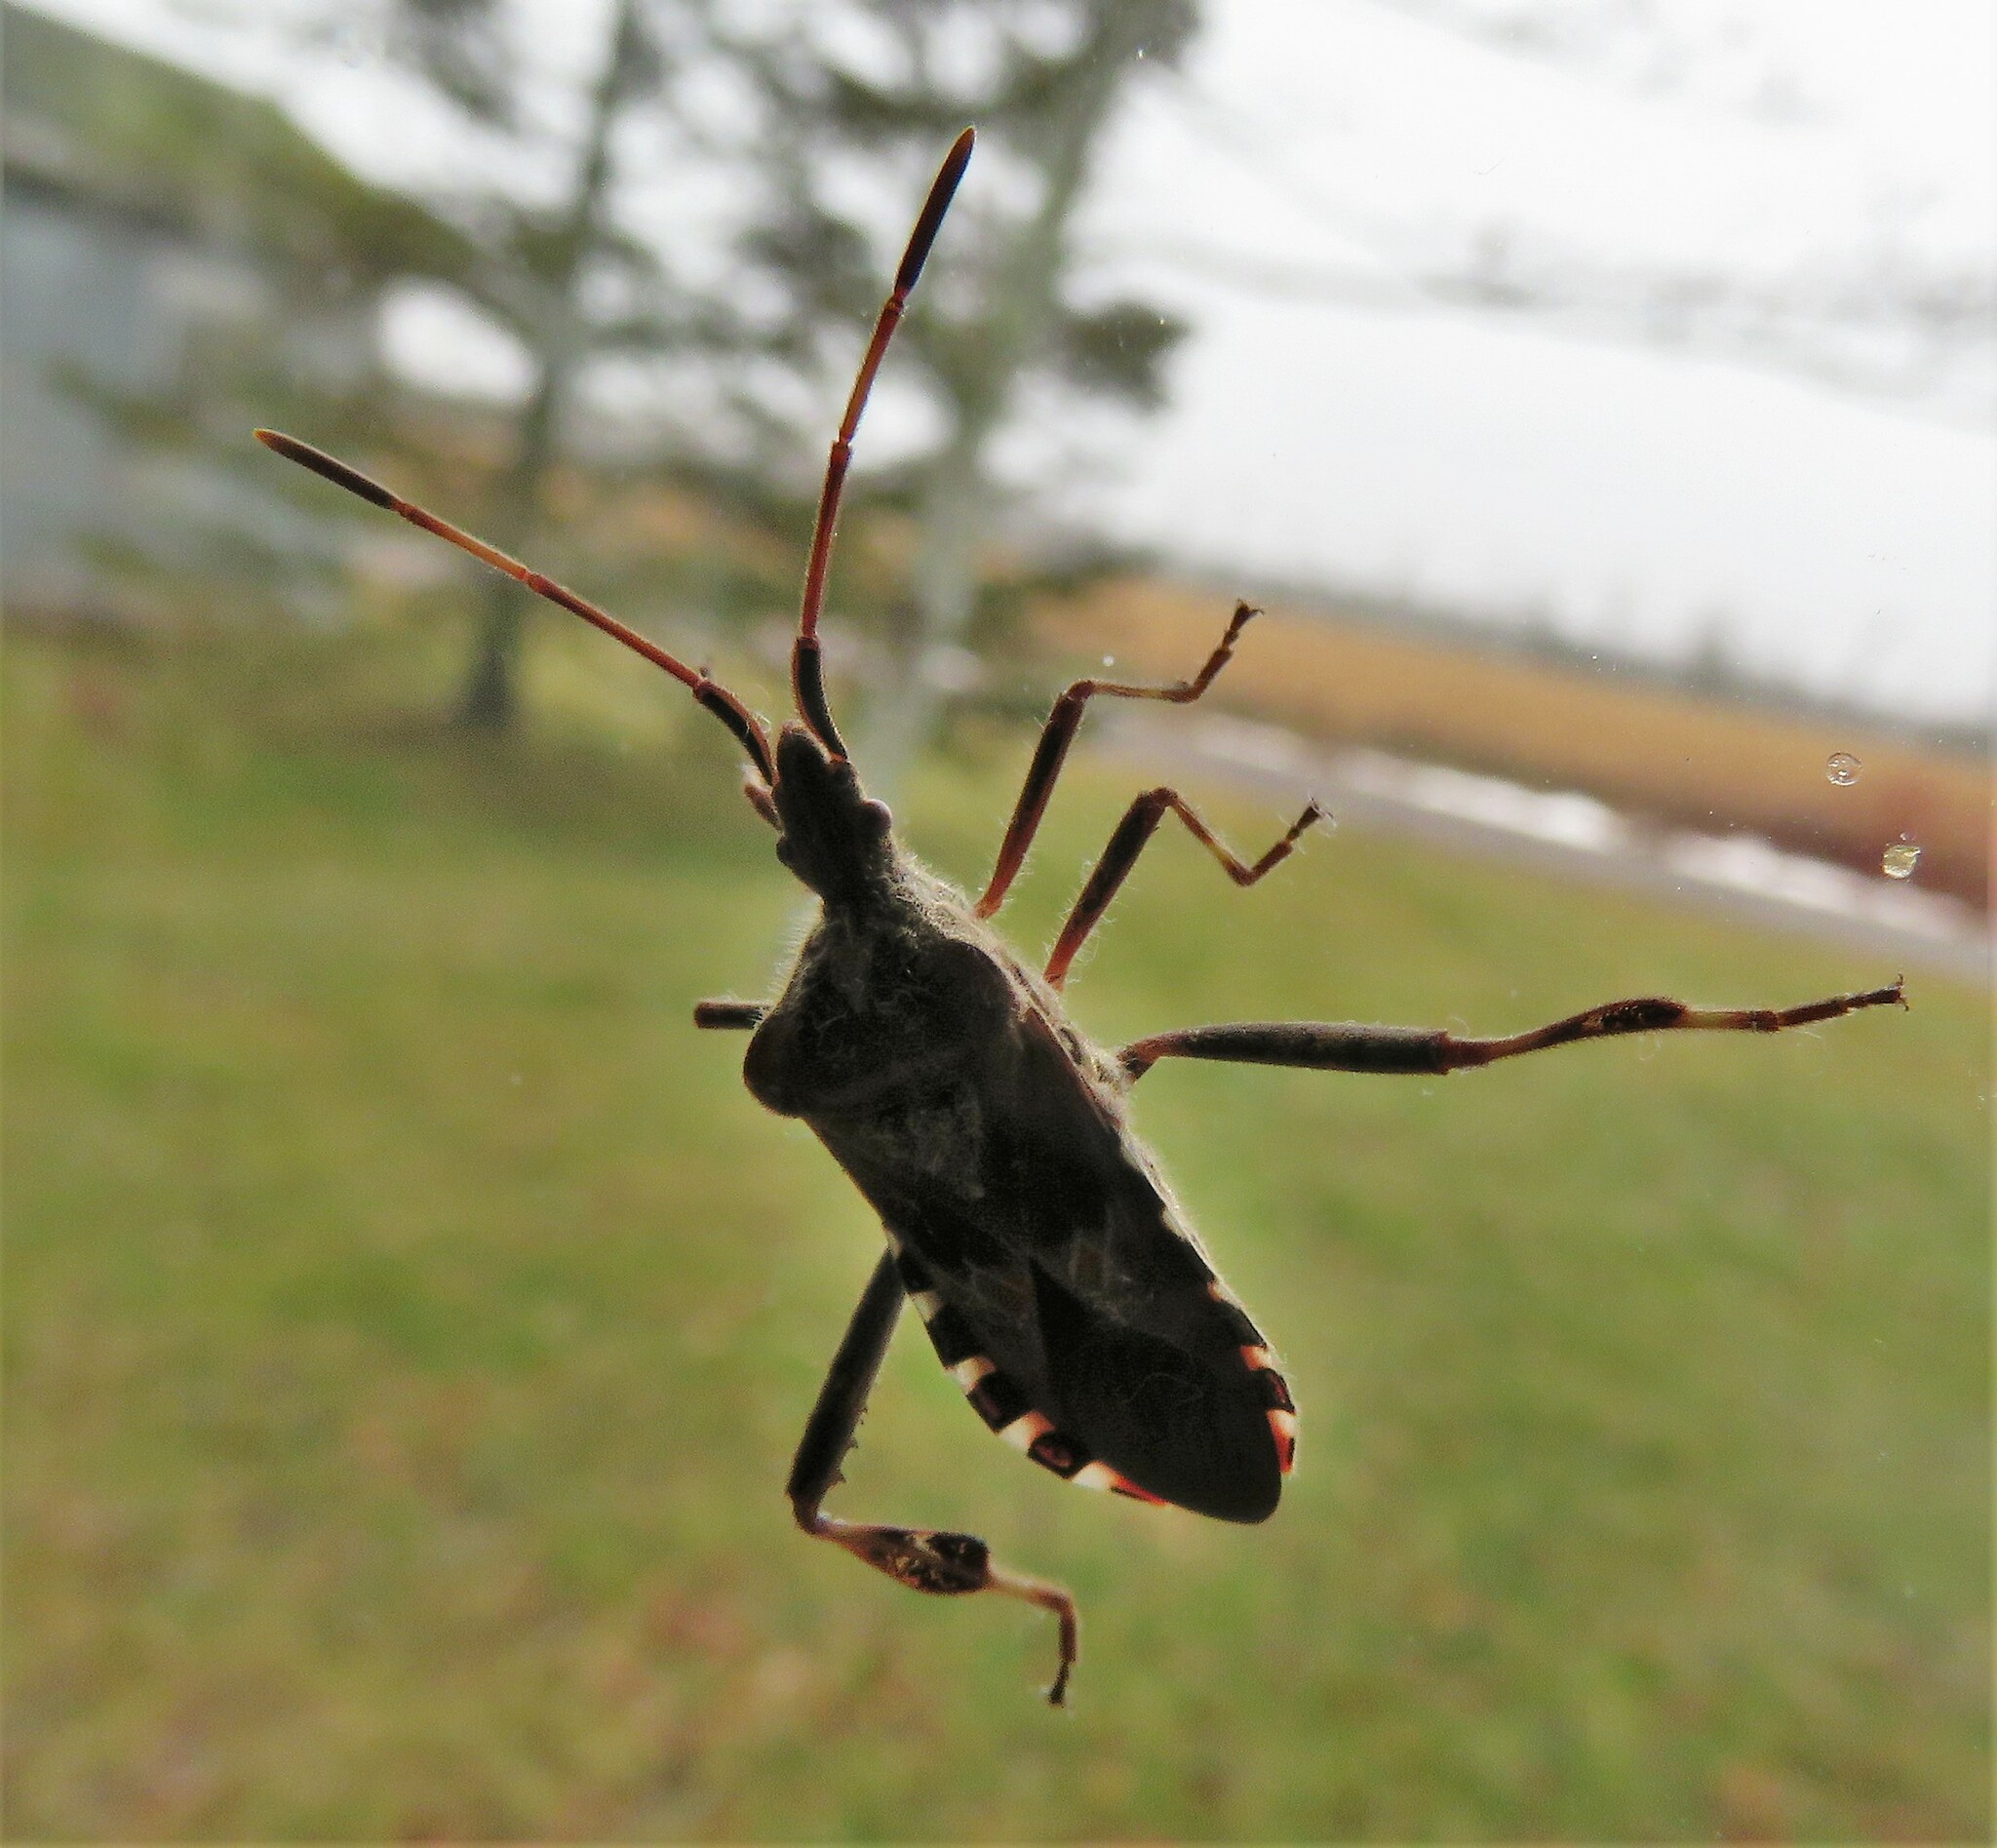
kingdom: Animalia
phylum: Arthropoda
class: Insecta
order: Hemiptera
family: Coreidae
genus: Leptoglossus
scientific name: Leptoglossus occidentalis
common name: Western conifer-seed bug
